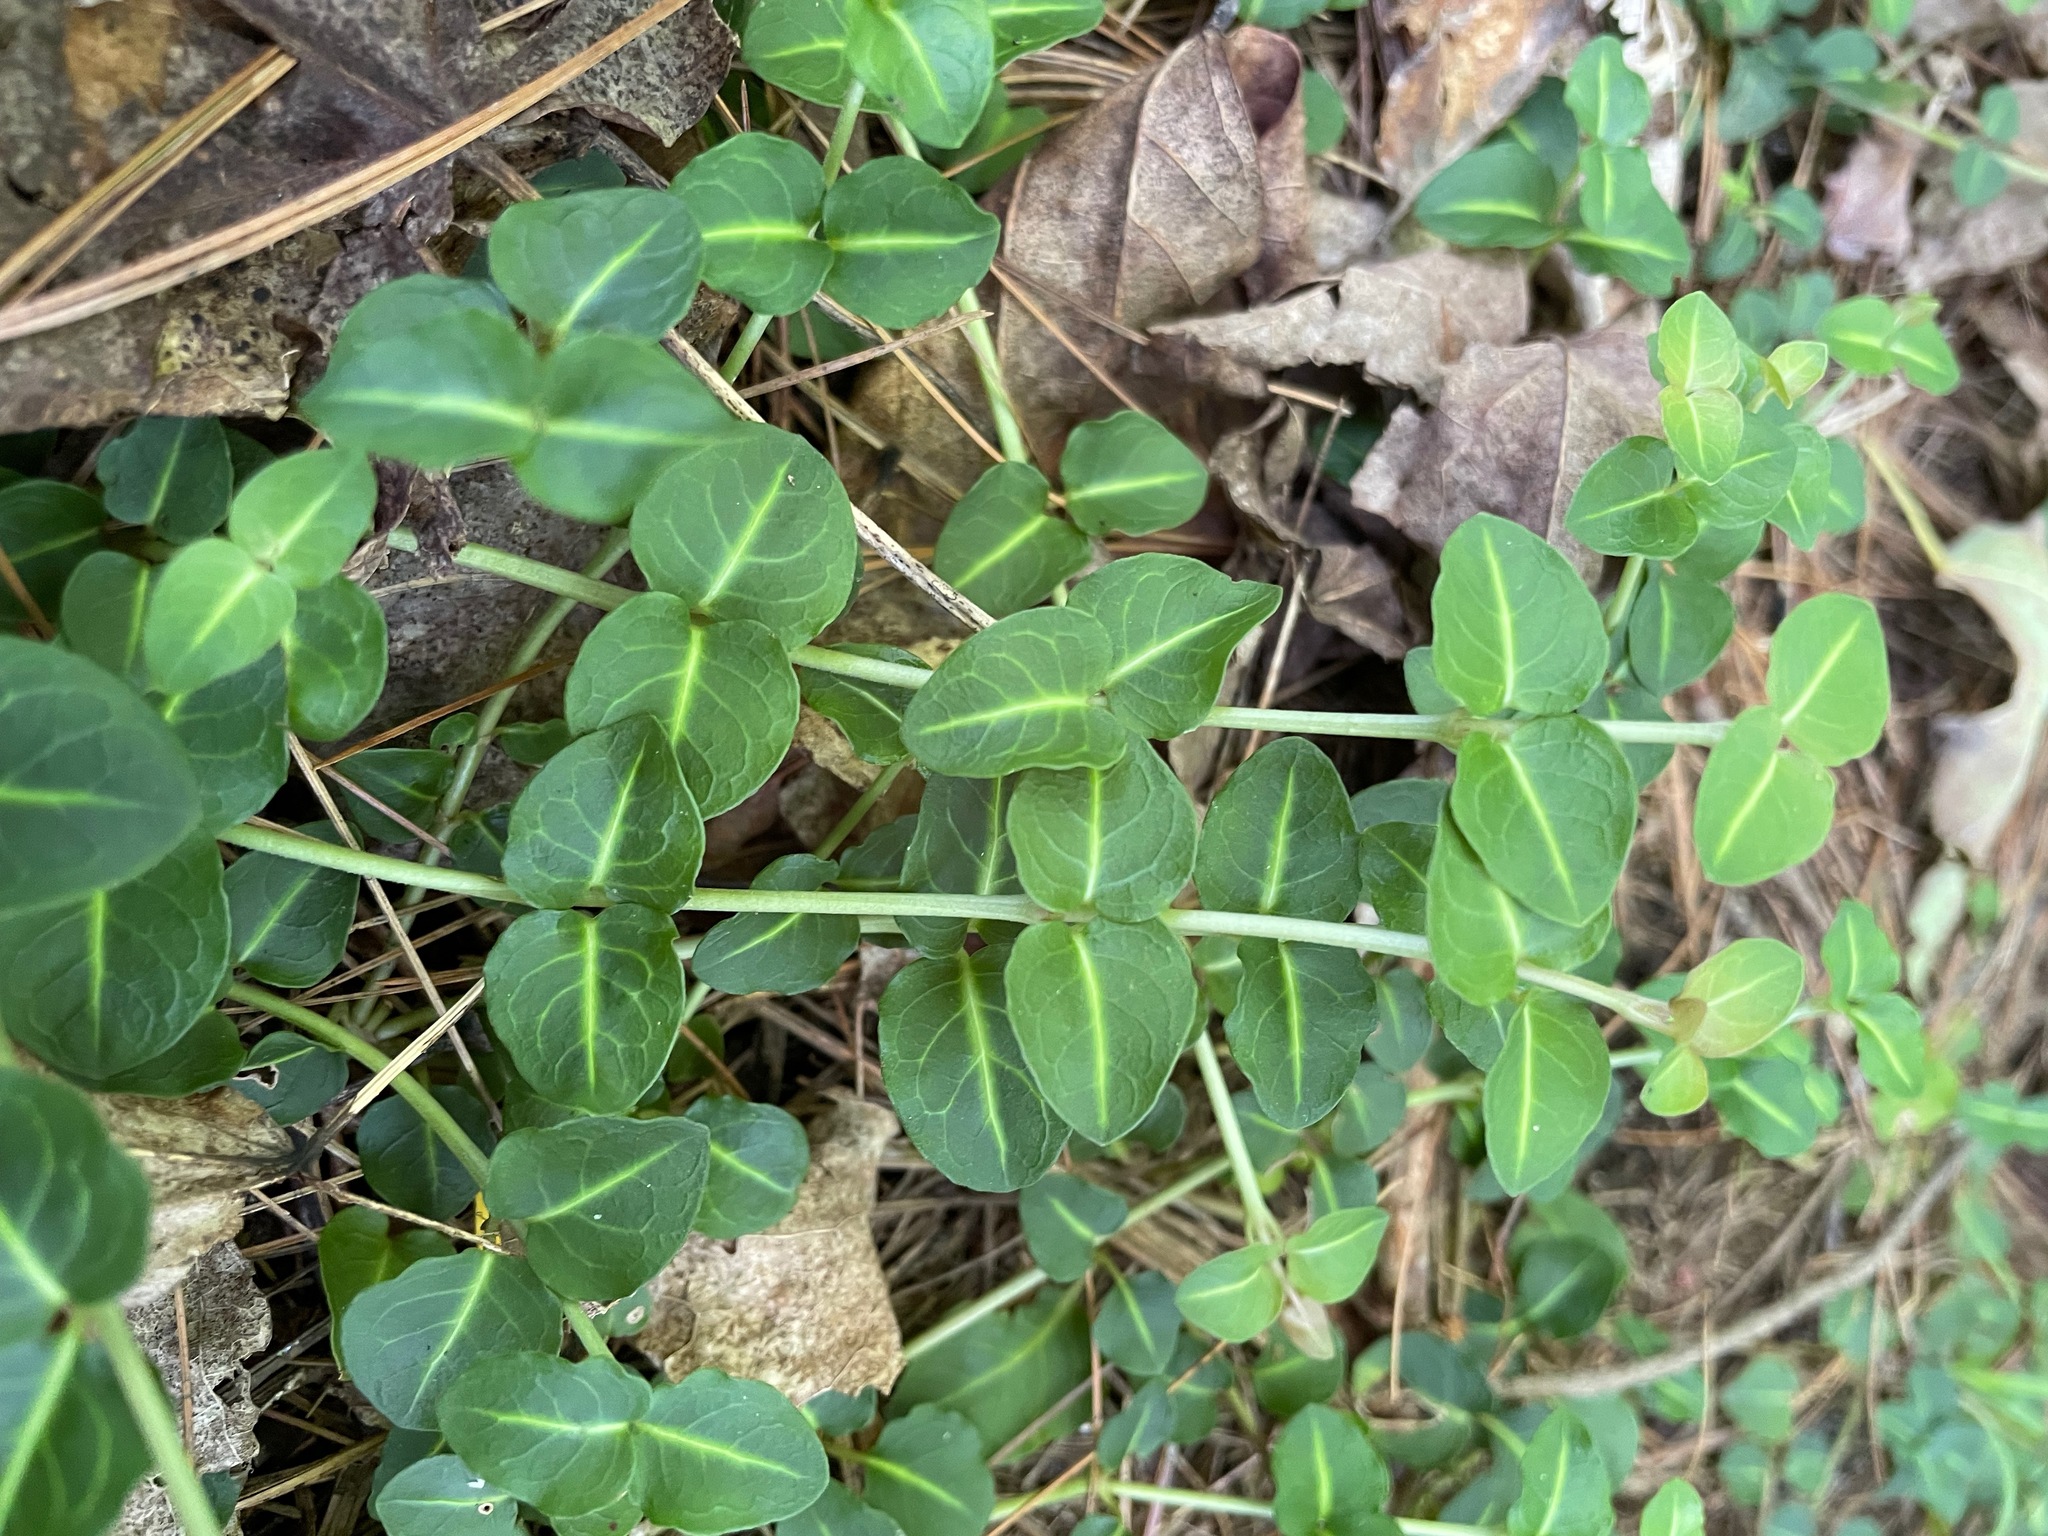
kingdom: Plantae
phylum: Tracheophyta
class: Magnoliopsida
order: Gentianales
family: Rubiaceae
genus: Mitchella
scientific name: Mitchella repens
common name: Partridge-berry
